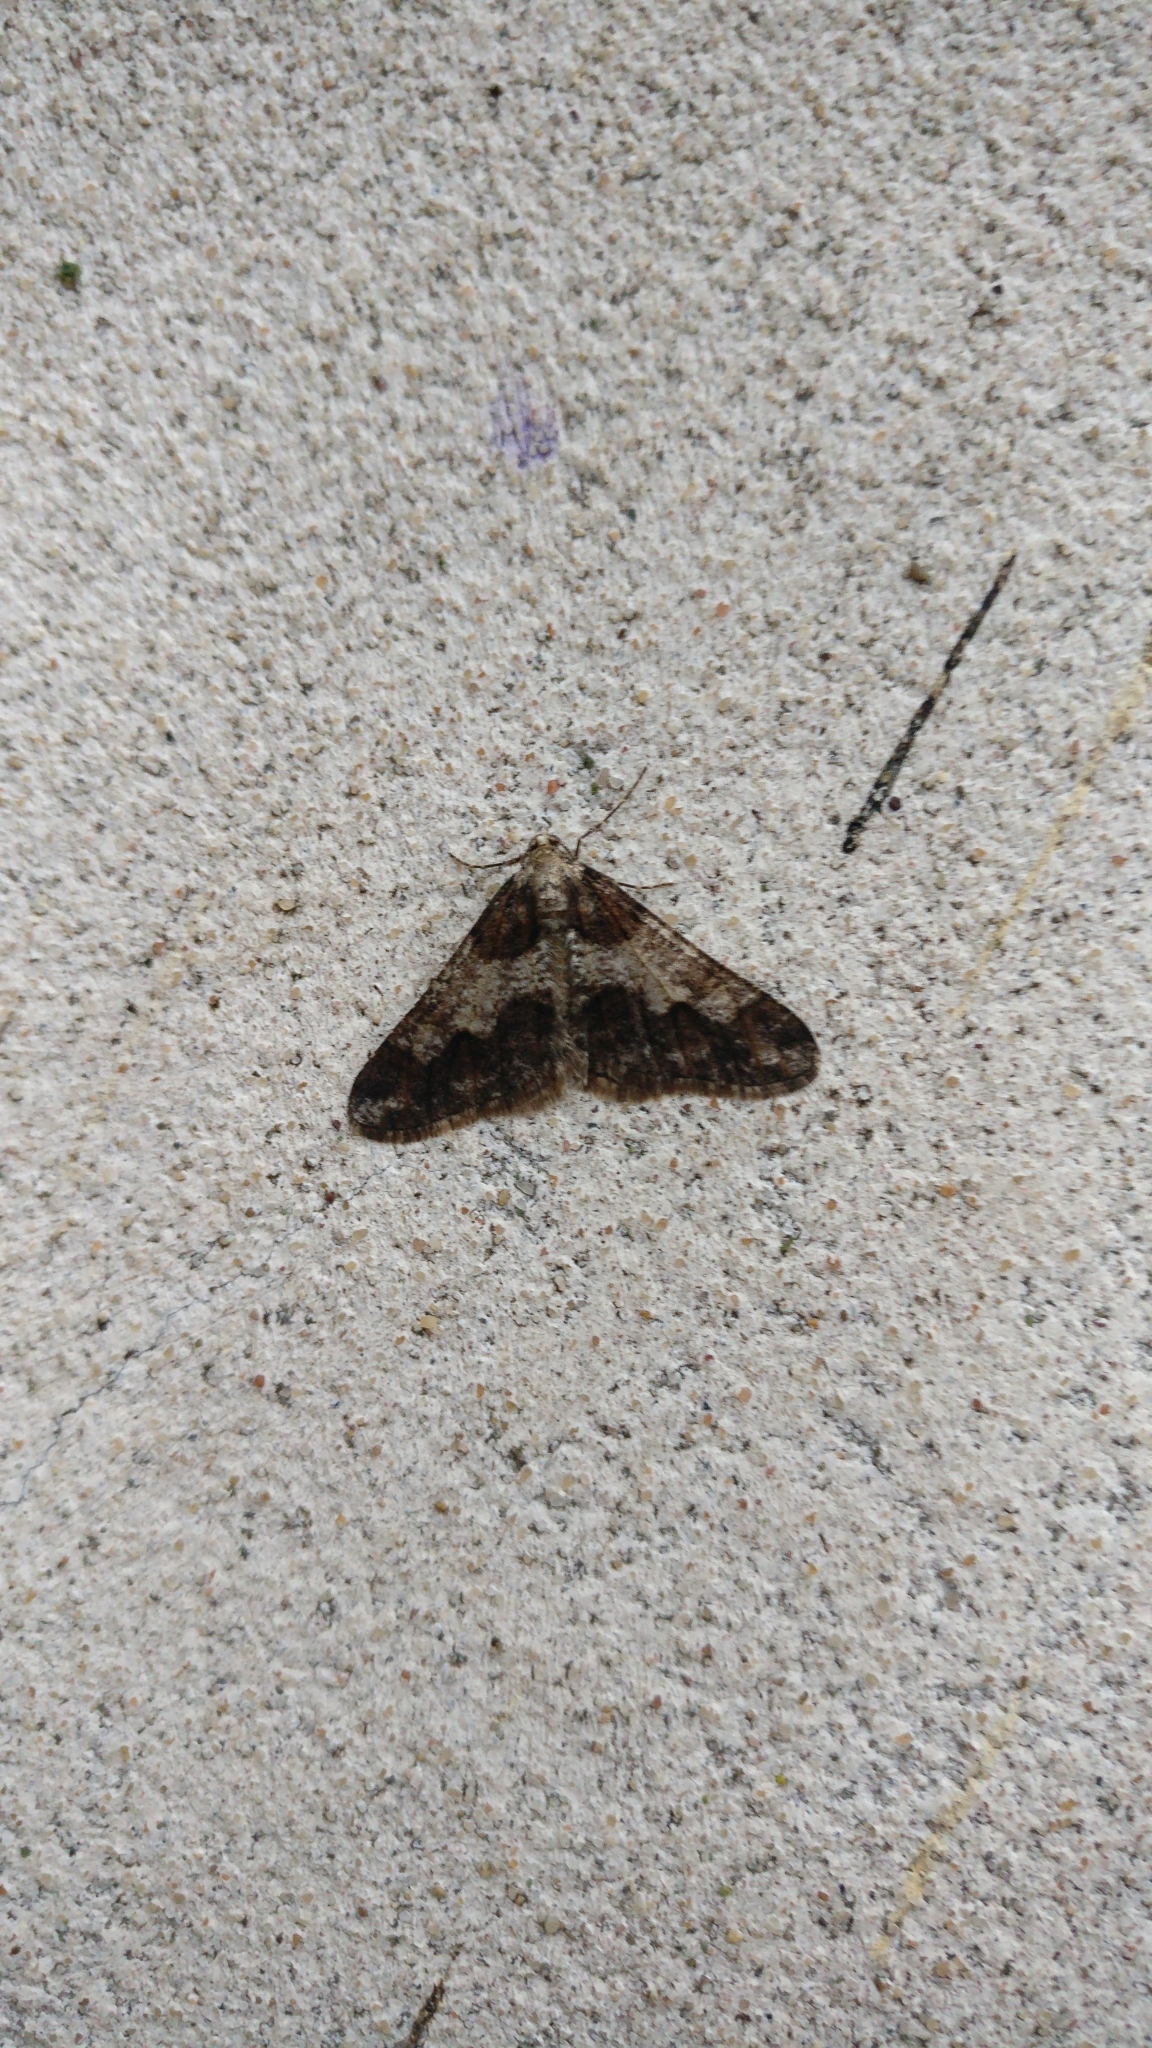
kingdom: Animalia
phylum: Arthropoda
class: Insecta
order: Lepidoptera
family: Geometridae
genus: Agriopis
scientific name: Agriopis leucophaearia
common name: Spring usher
